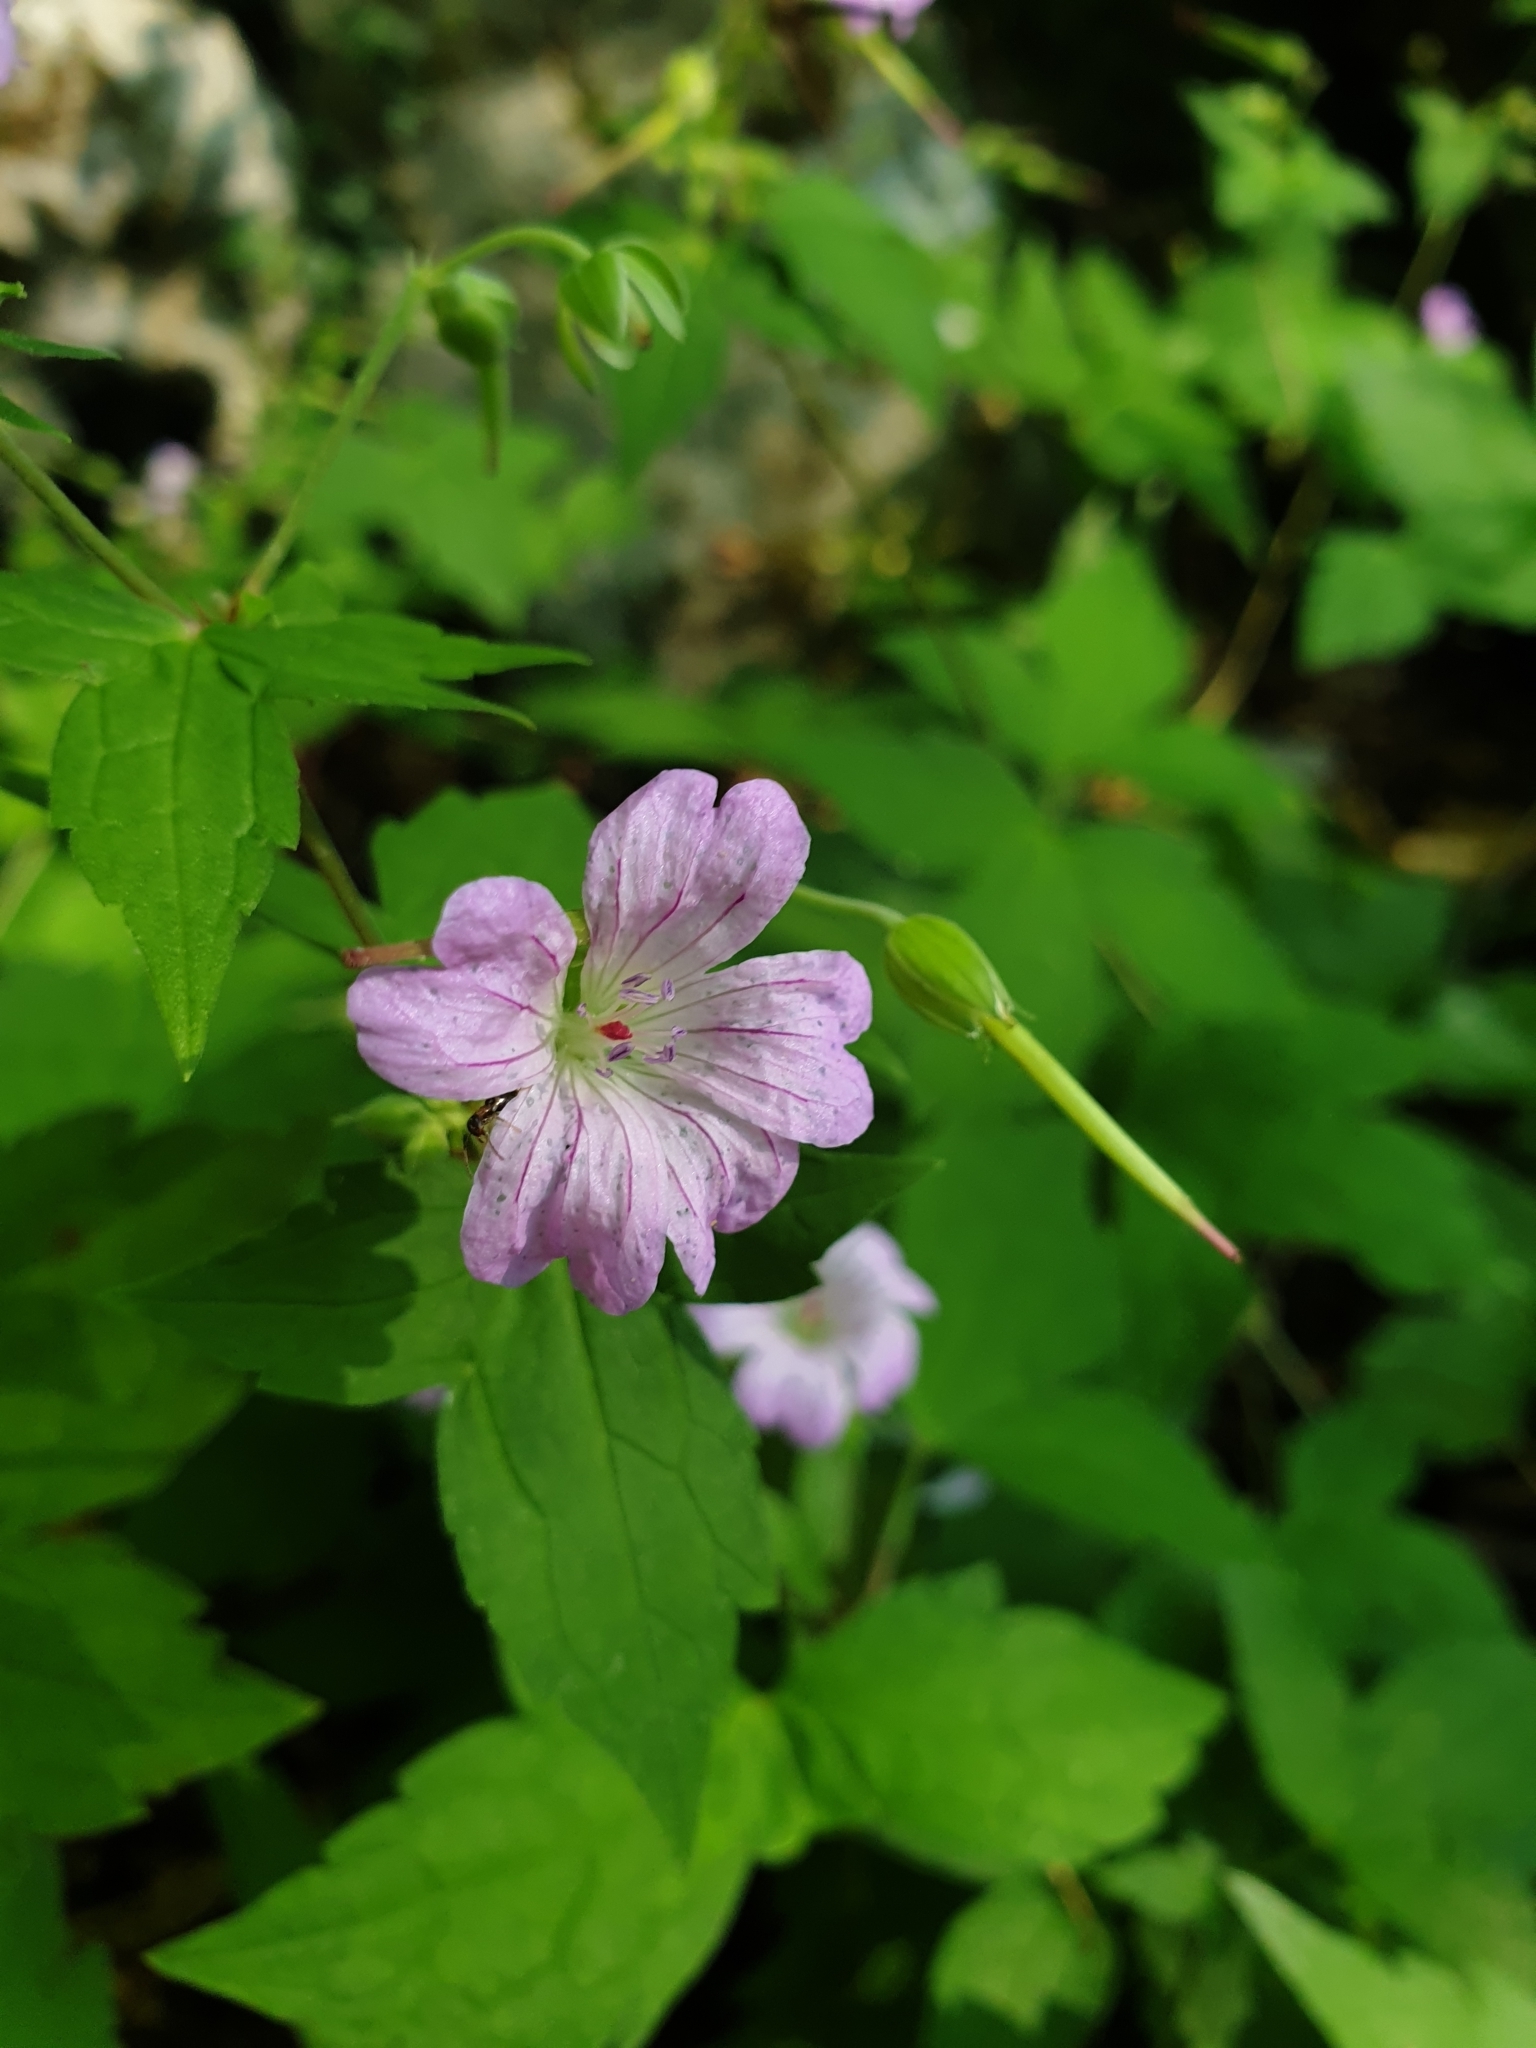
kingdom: Plantae
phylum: Tracheophyta
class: Magnoliopsida
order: Geraniales
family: Geraniaceae
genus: Geranium
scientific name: Geranium nodosum
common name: Knotted crane's-bill
